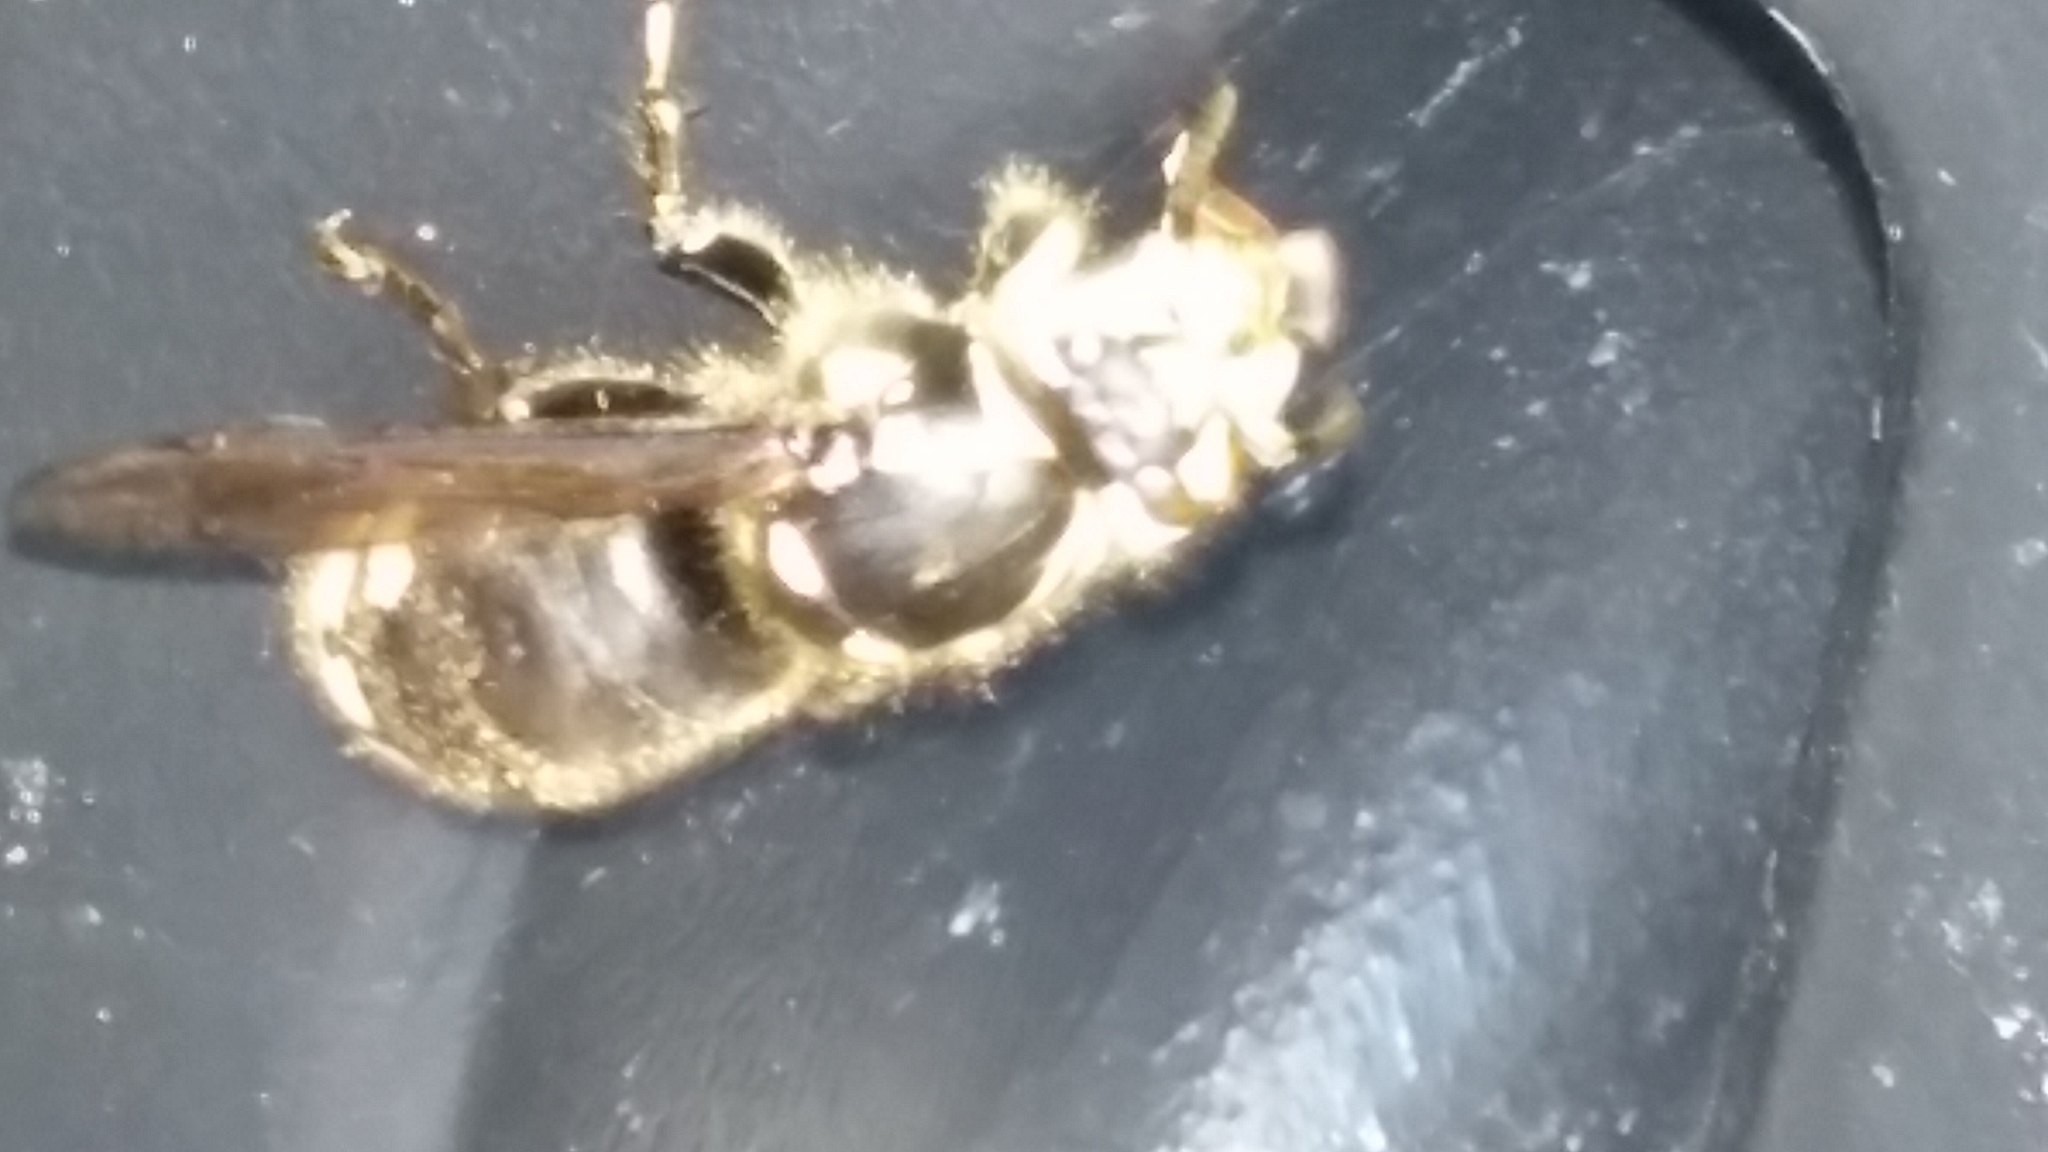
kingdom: Animalia
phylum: Arthropoda
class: Insecta
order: Hymenoptera
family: Vespidae
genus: Dolichovespula
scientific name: Dolichovespula maculata
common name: Bald-faced hornet
